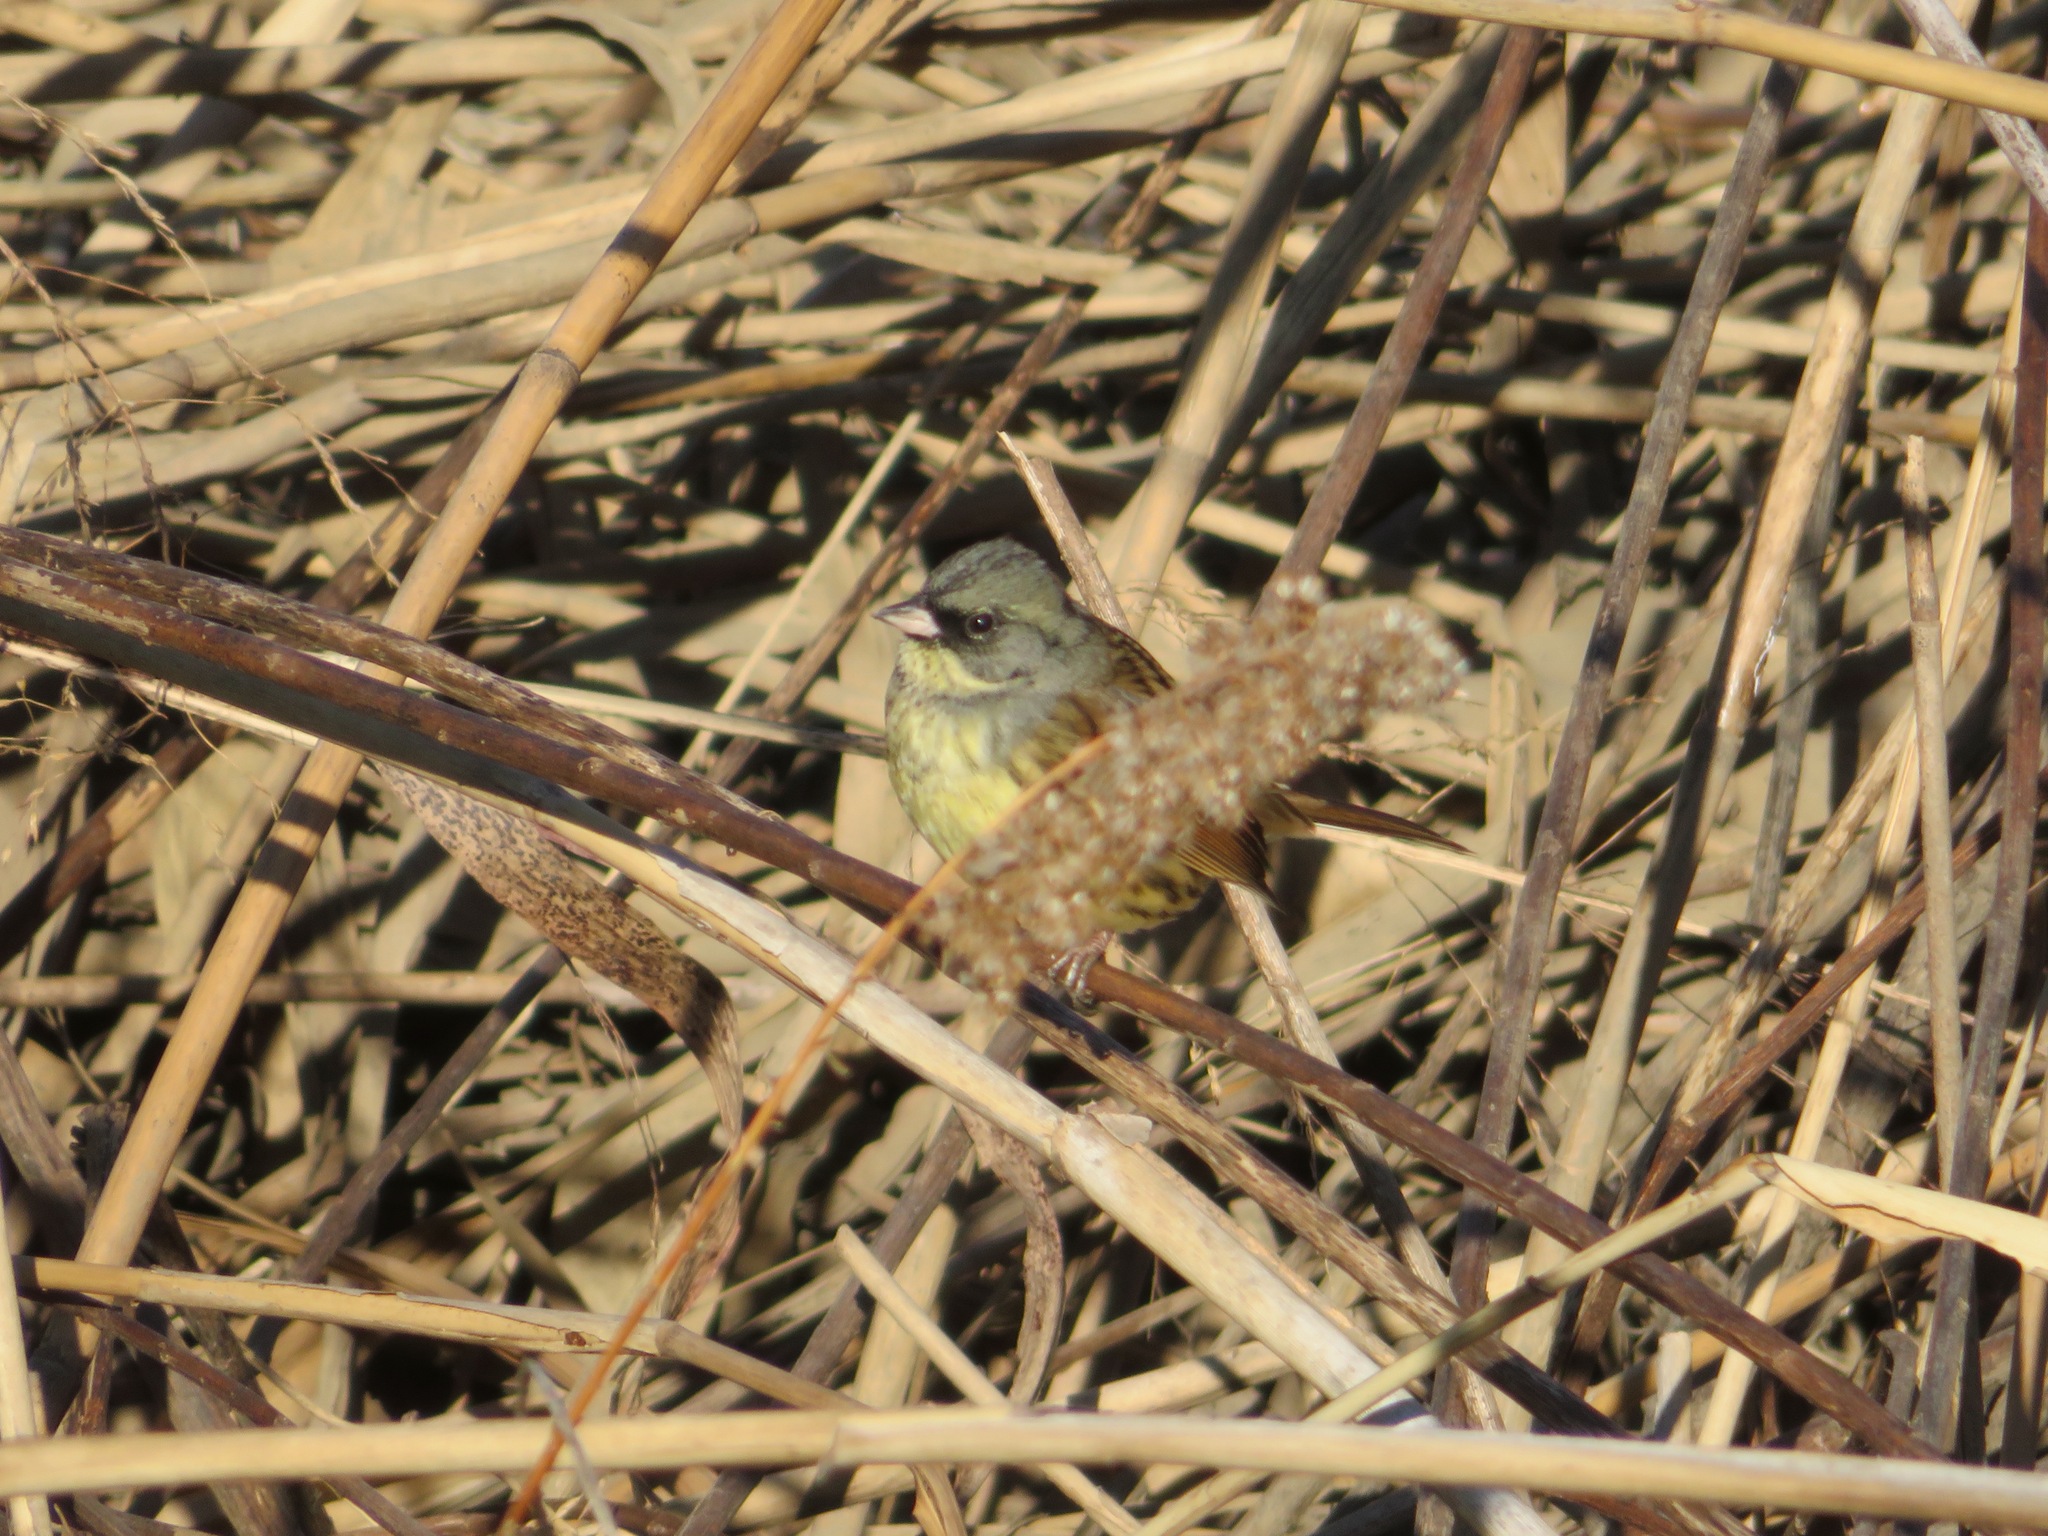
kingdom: Animalia
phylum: Chordata
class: Aves
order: Passeriformes
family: Emberizidae
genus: Emberiza
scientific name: Emberiza personata
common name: Masked bunting
